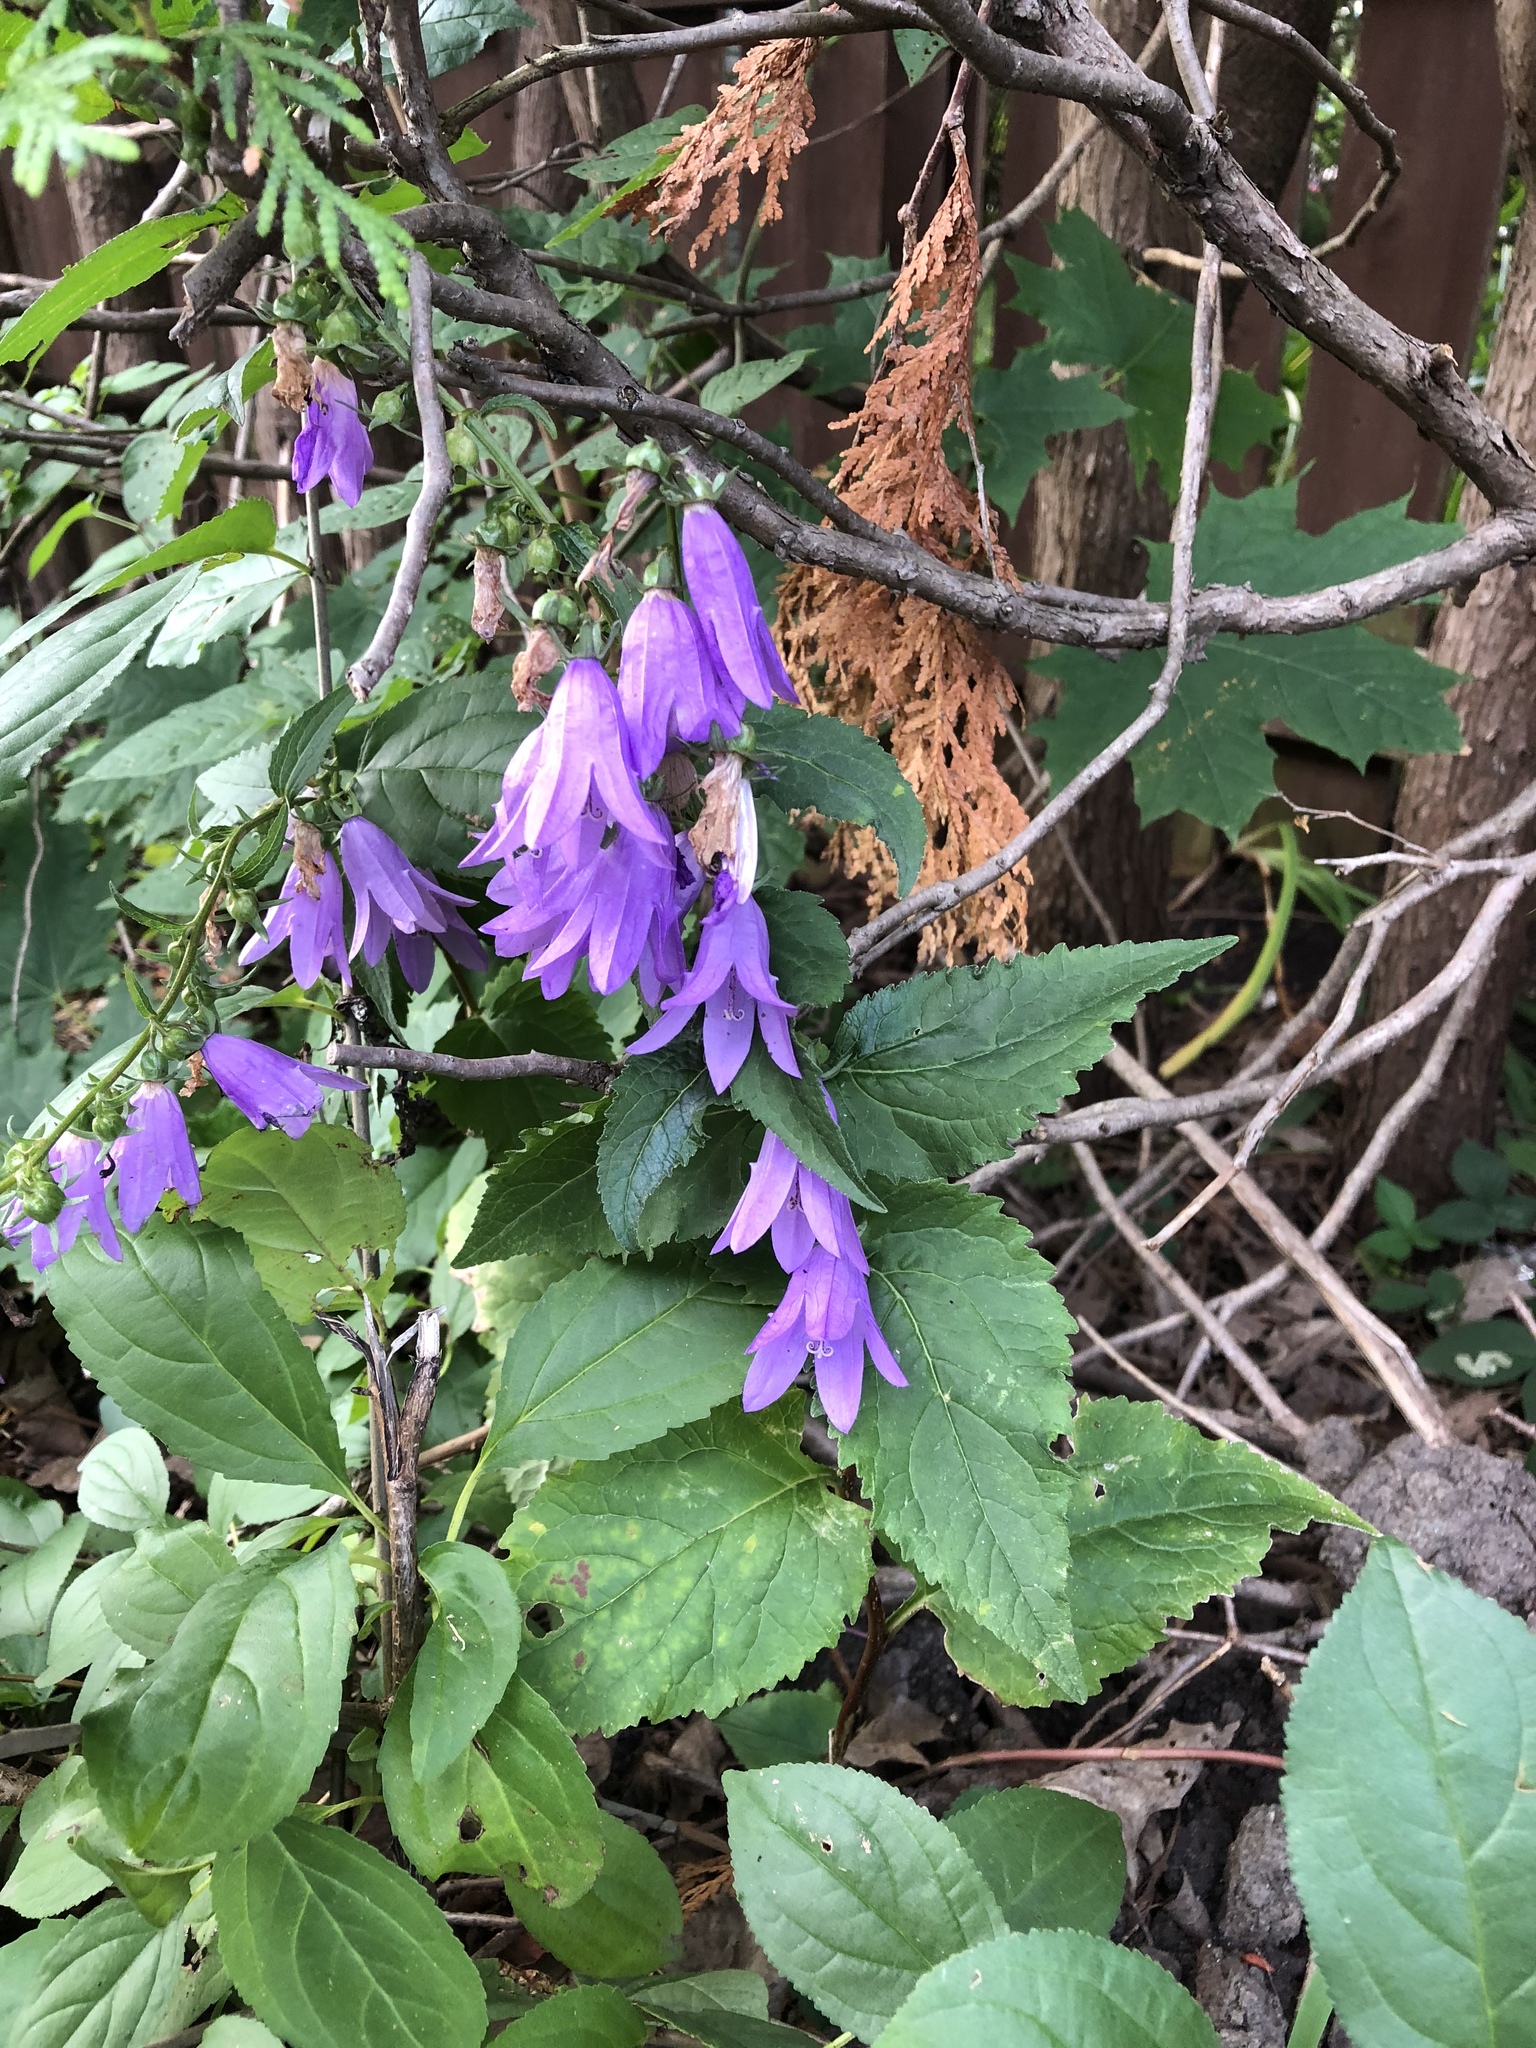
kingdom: Plantae
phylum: Tracheophyta
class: Magnoliopsida
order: Asterales
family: Campanulaceae
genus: Campanula
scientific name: Campanula rapunculoides
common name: Creeping bellflower
